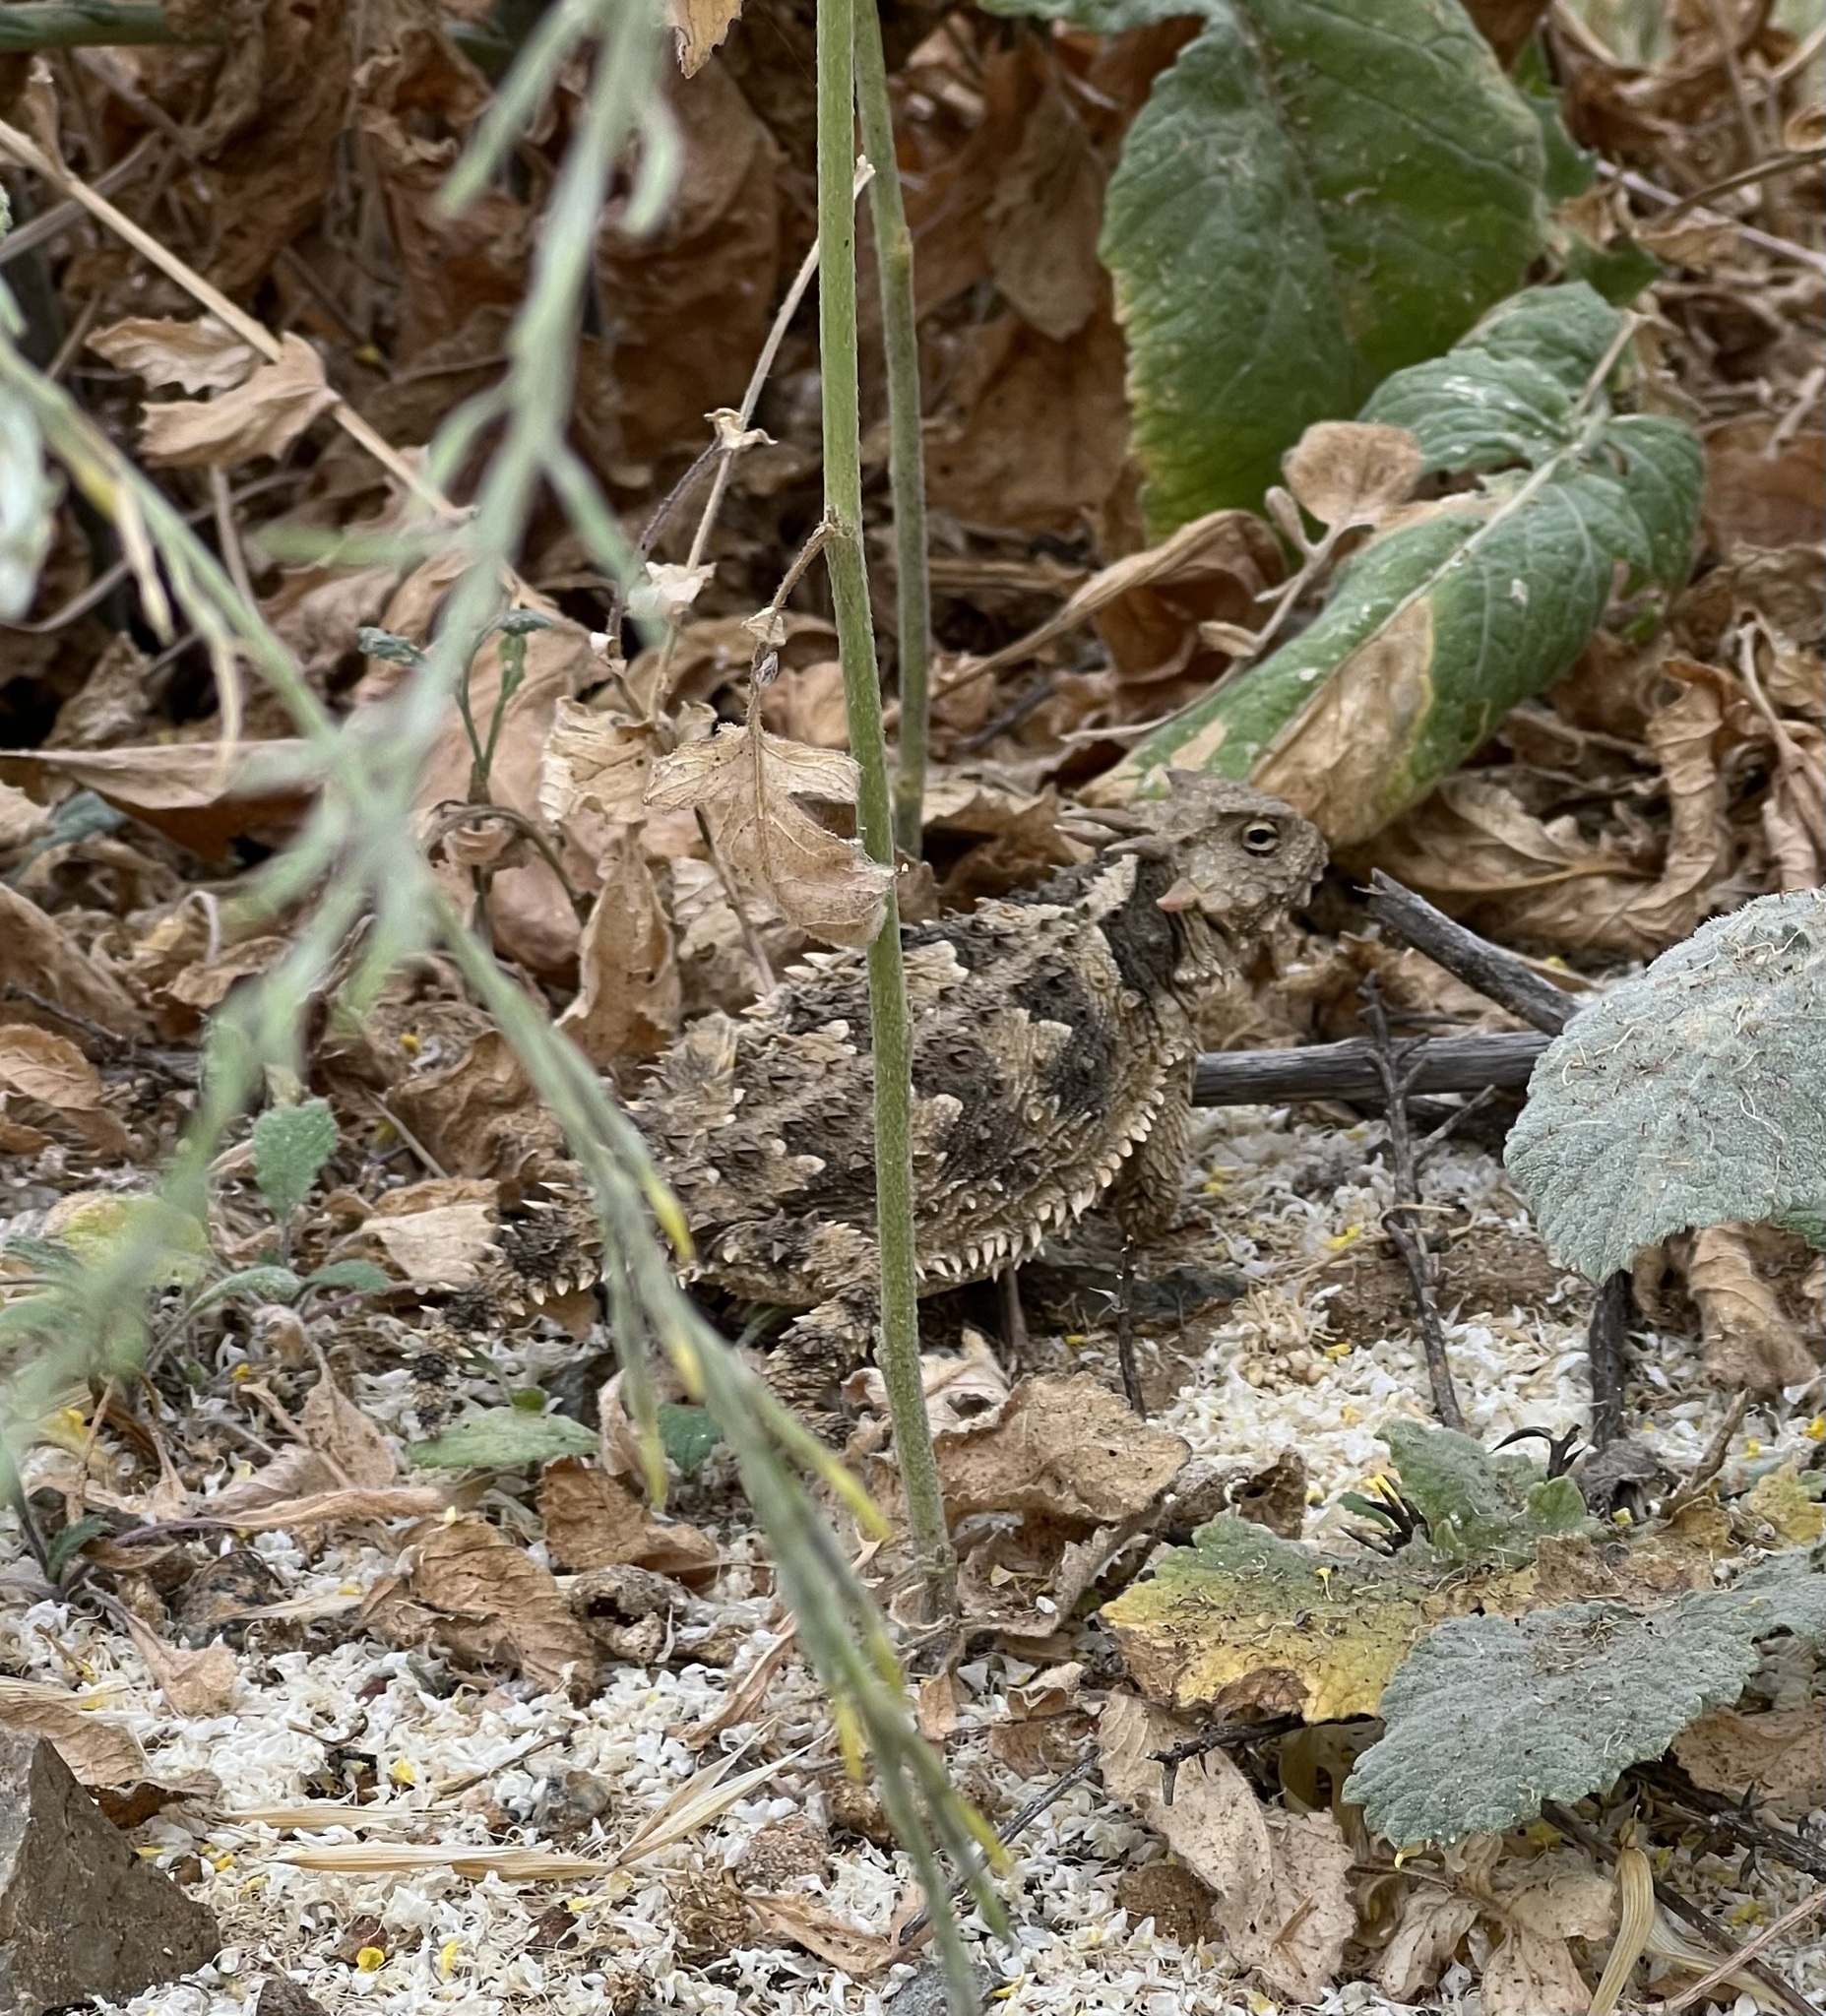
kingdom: Animalia
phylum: Chordata
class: Squamata
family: Phrynosomatidae
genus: Phrynosoma
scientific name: Phrynosoma blainvillii
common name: San diego horned lizard
